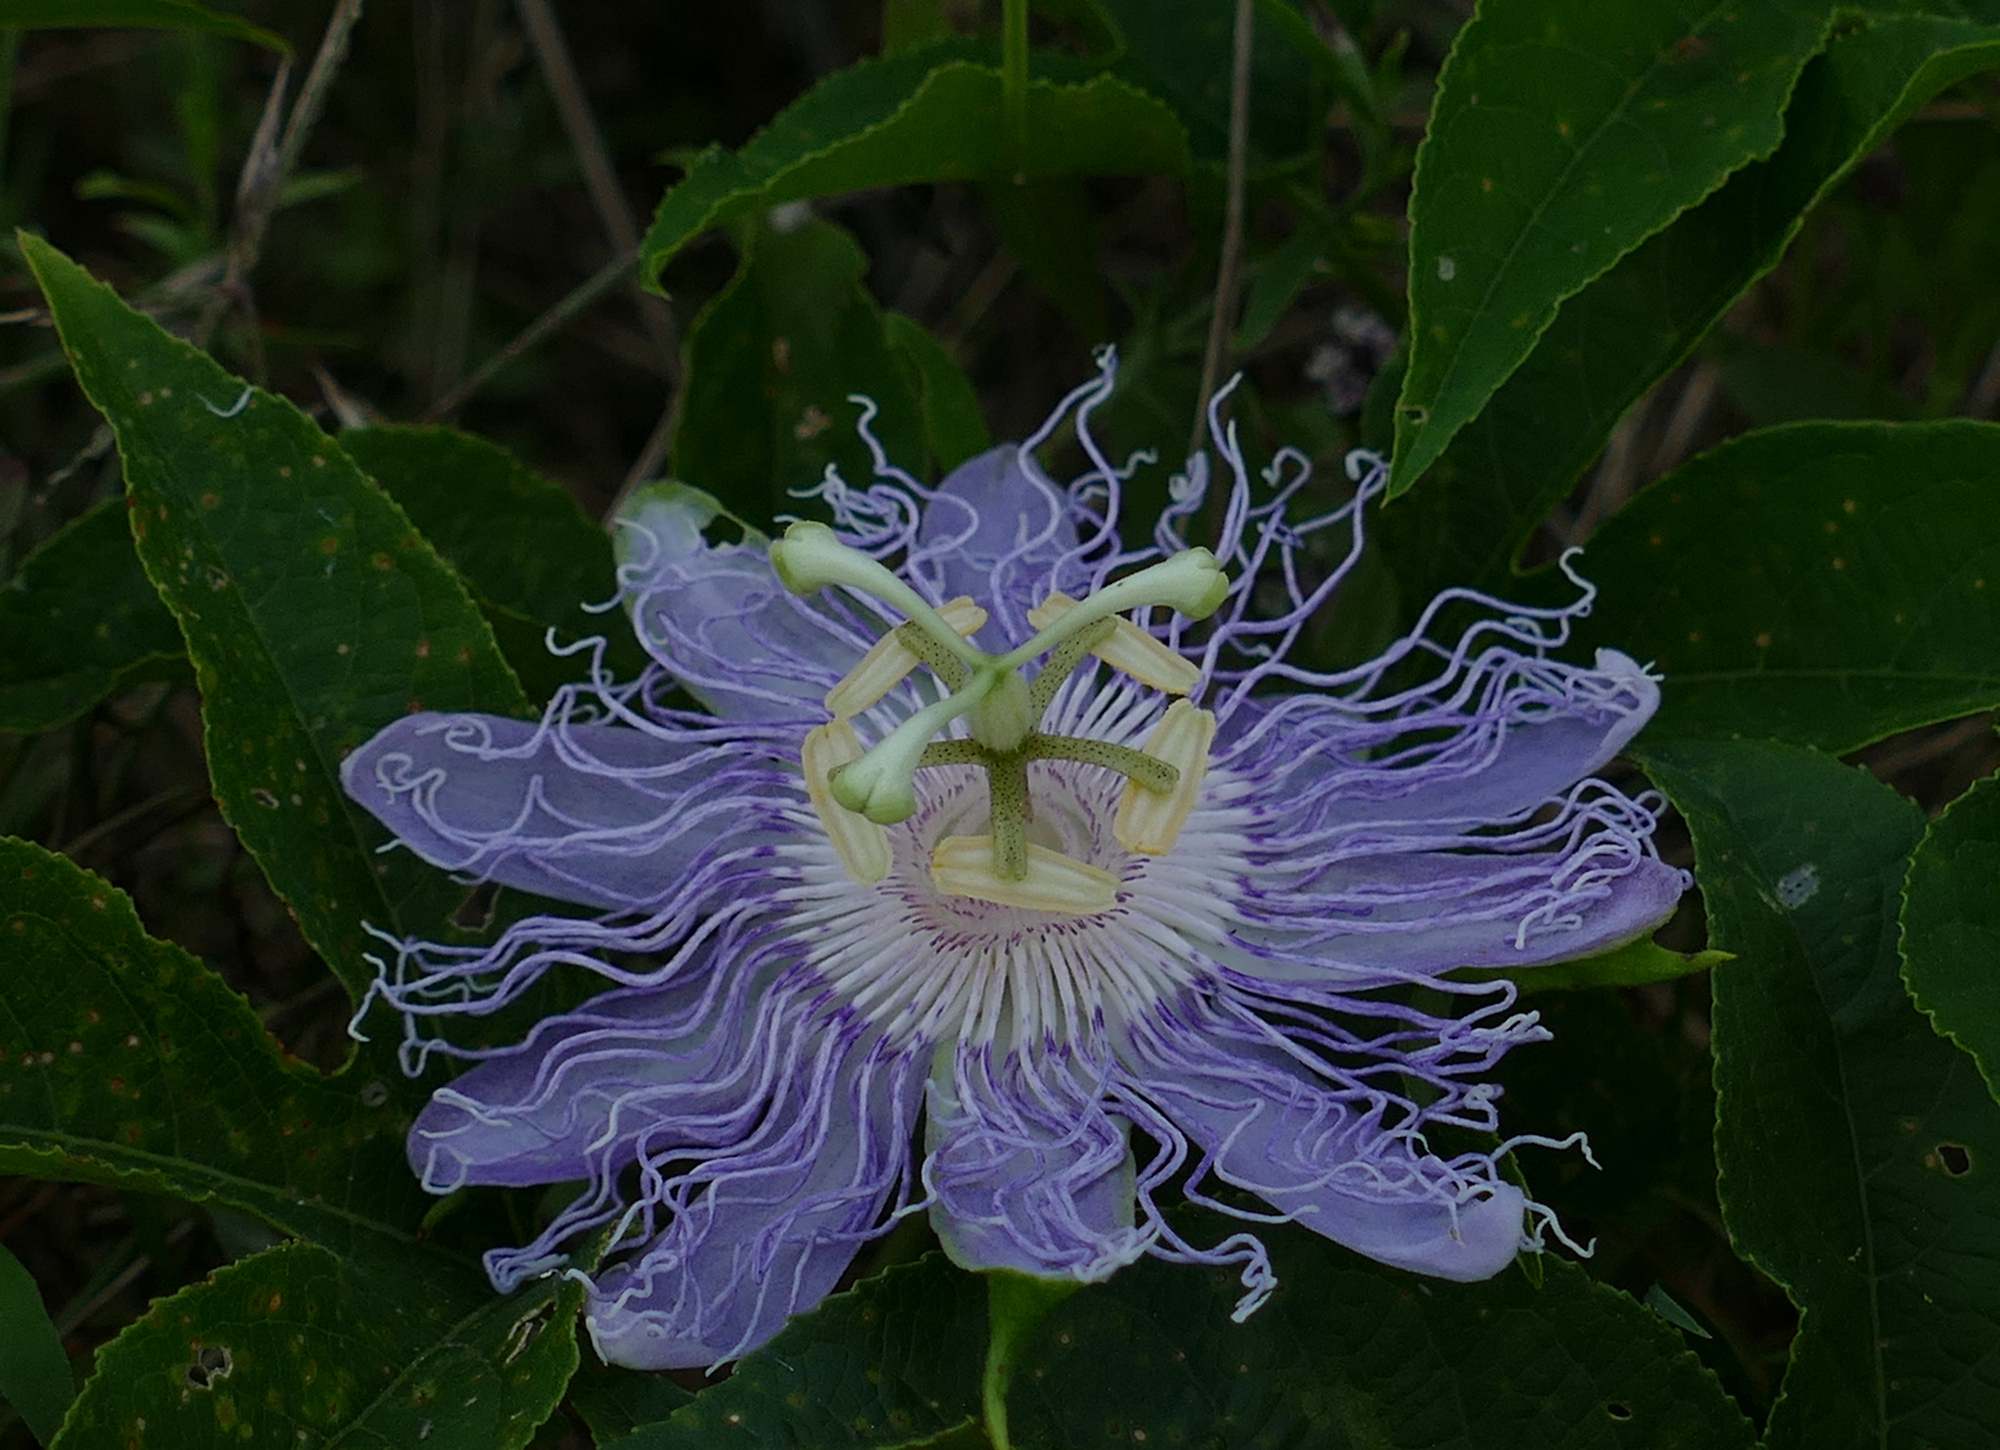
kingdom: Plantae
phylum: Tracheophyta
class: Magnoliopsida
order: Malpighiales
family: Passifloraceae
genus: Passiflora
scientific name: Passiflora incarnata
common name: Apricot-vine
